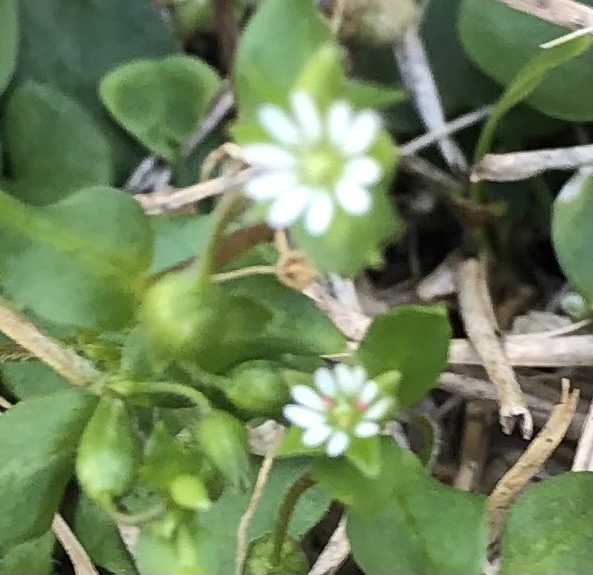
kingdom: Plantae
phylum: Tracheophyta
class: Magnoliopsida
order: Caryophyllales
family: Caryophyllaceae
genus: Stellaria
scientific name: Stellaria media
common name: Common chickweed
